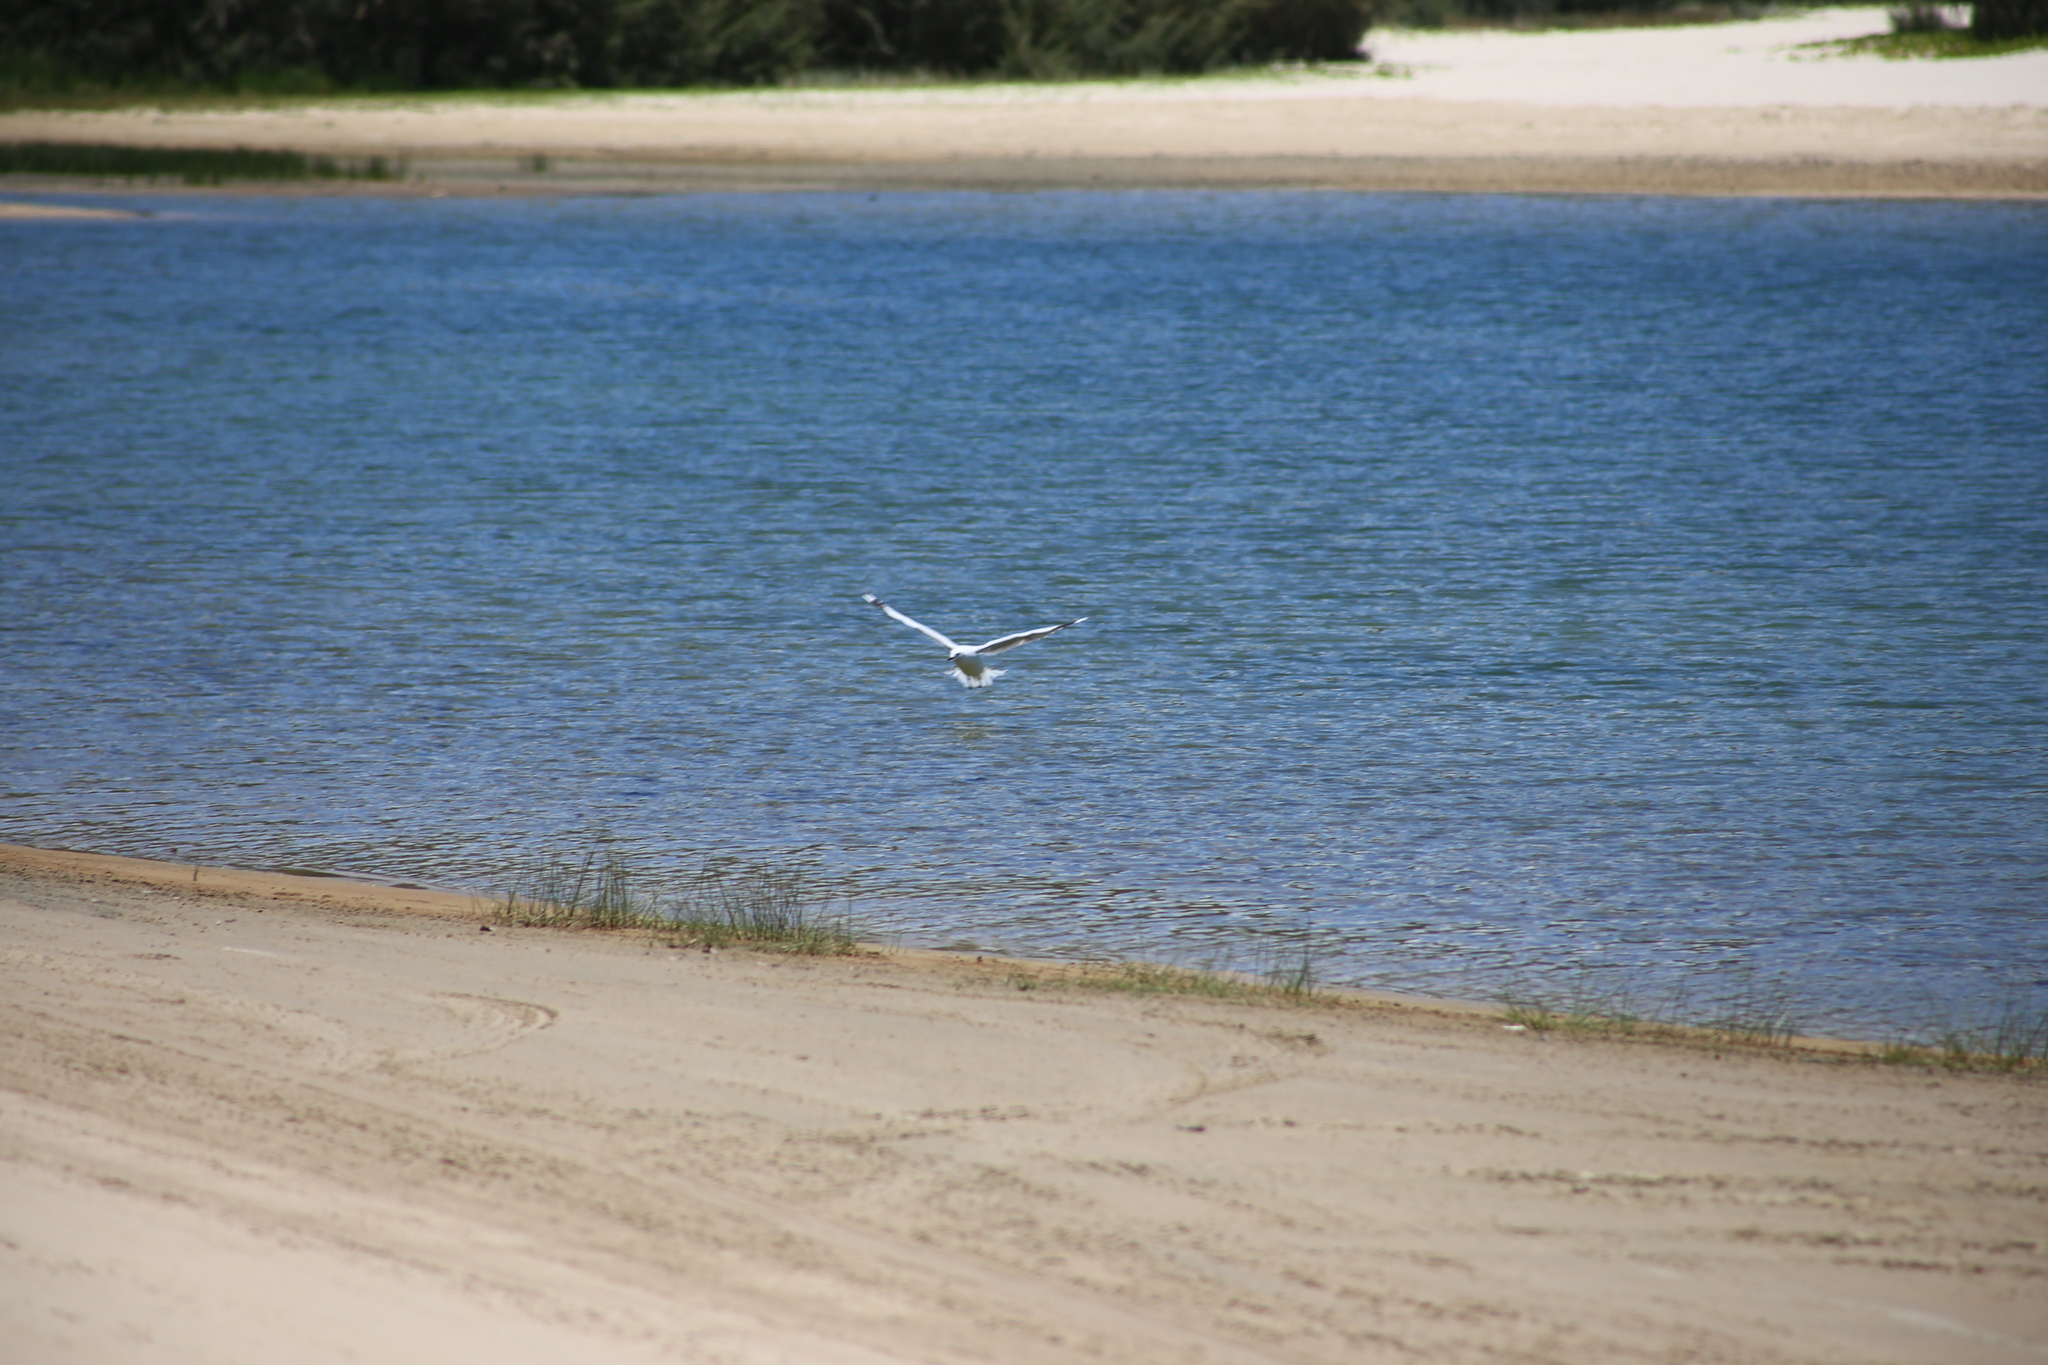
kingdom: Animalia
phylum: Chordata
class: Aves
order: Charadriiformes
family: Laridae
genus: Chroicocephalus
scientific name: Chroicocephalus novaehollandiae
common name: Silver gull
